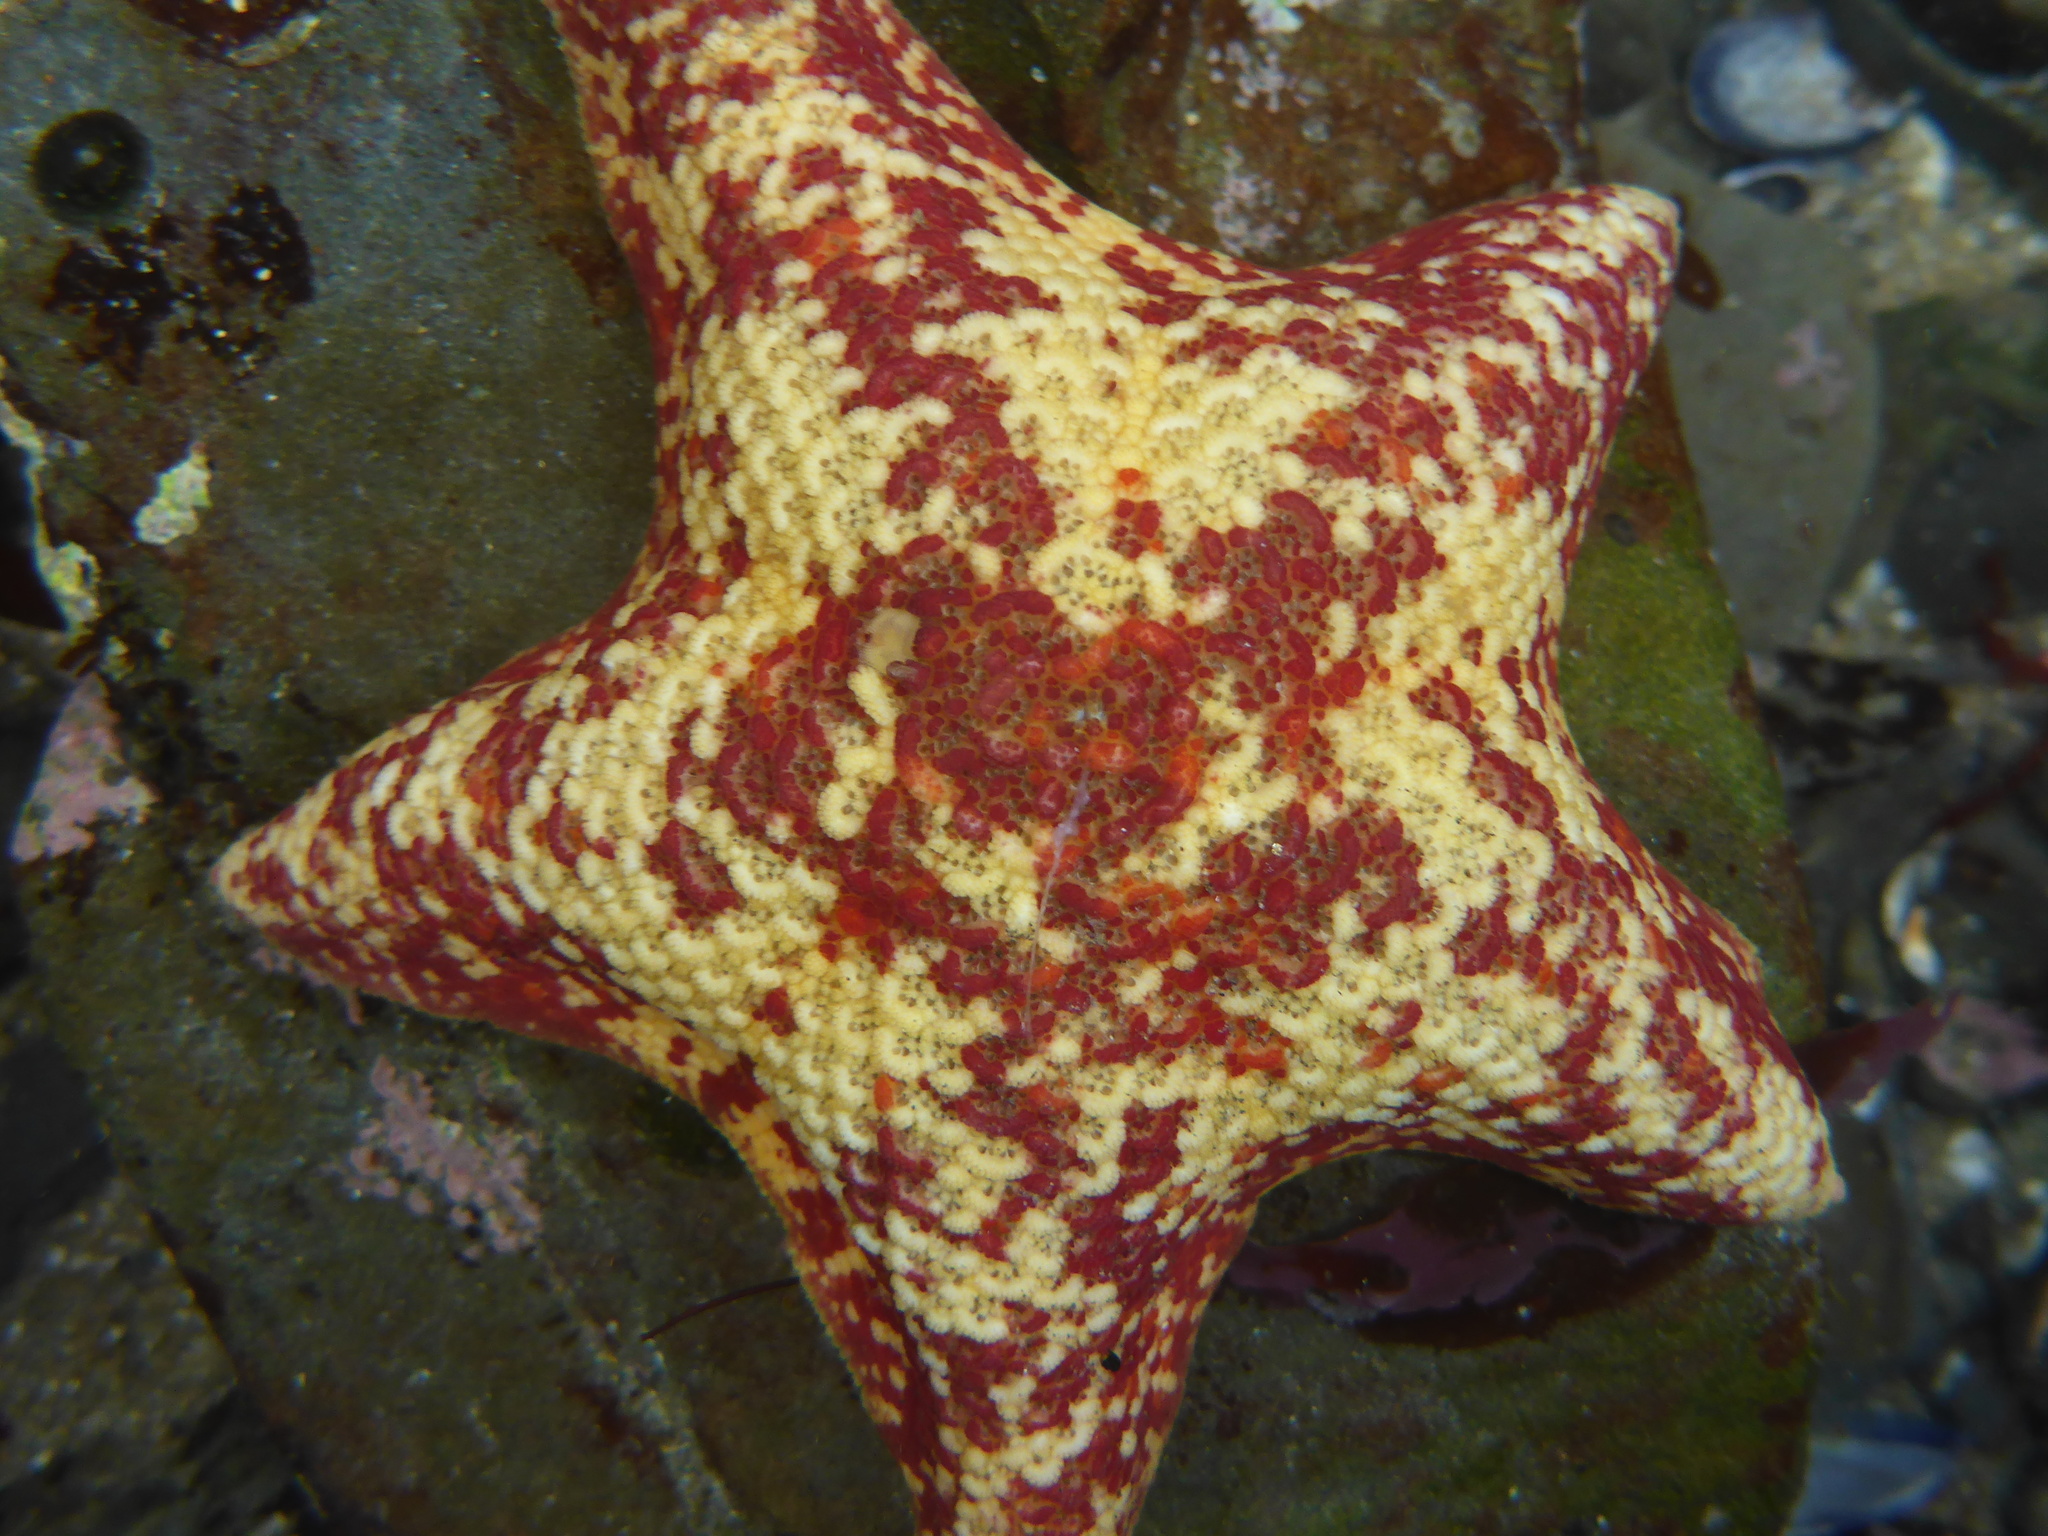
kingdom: Animalia
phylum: Echinodermata
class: Asteroidea
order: Valvatida
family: Asterinidae
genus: Patiria
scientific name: Patiria miniata
